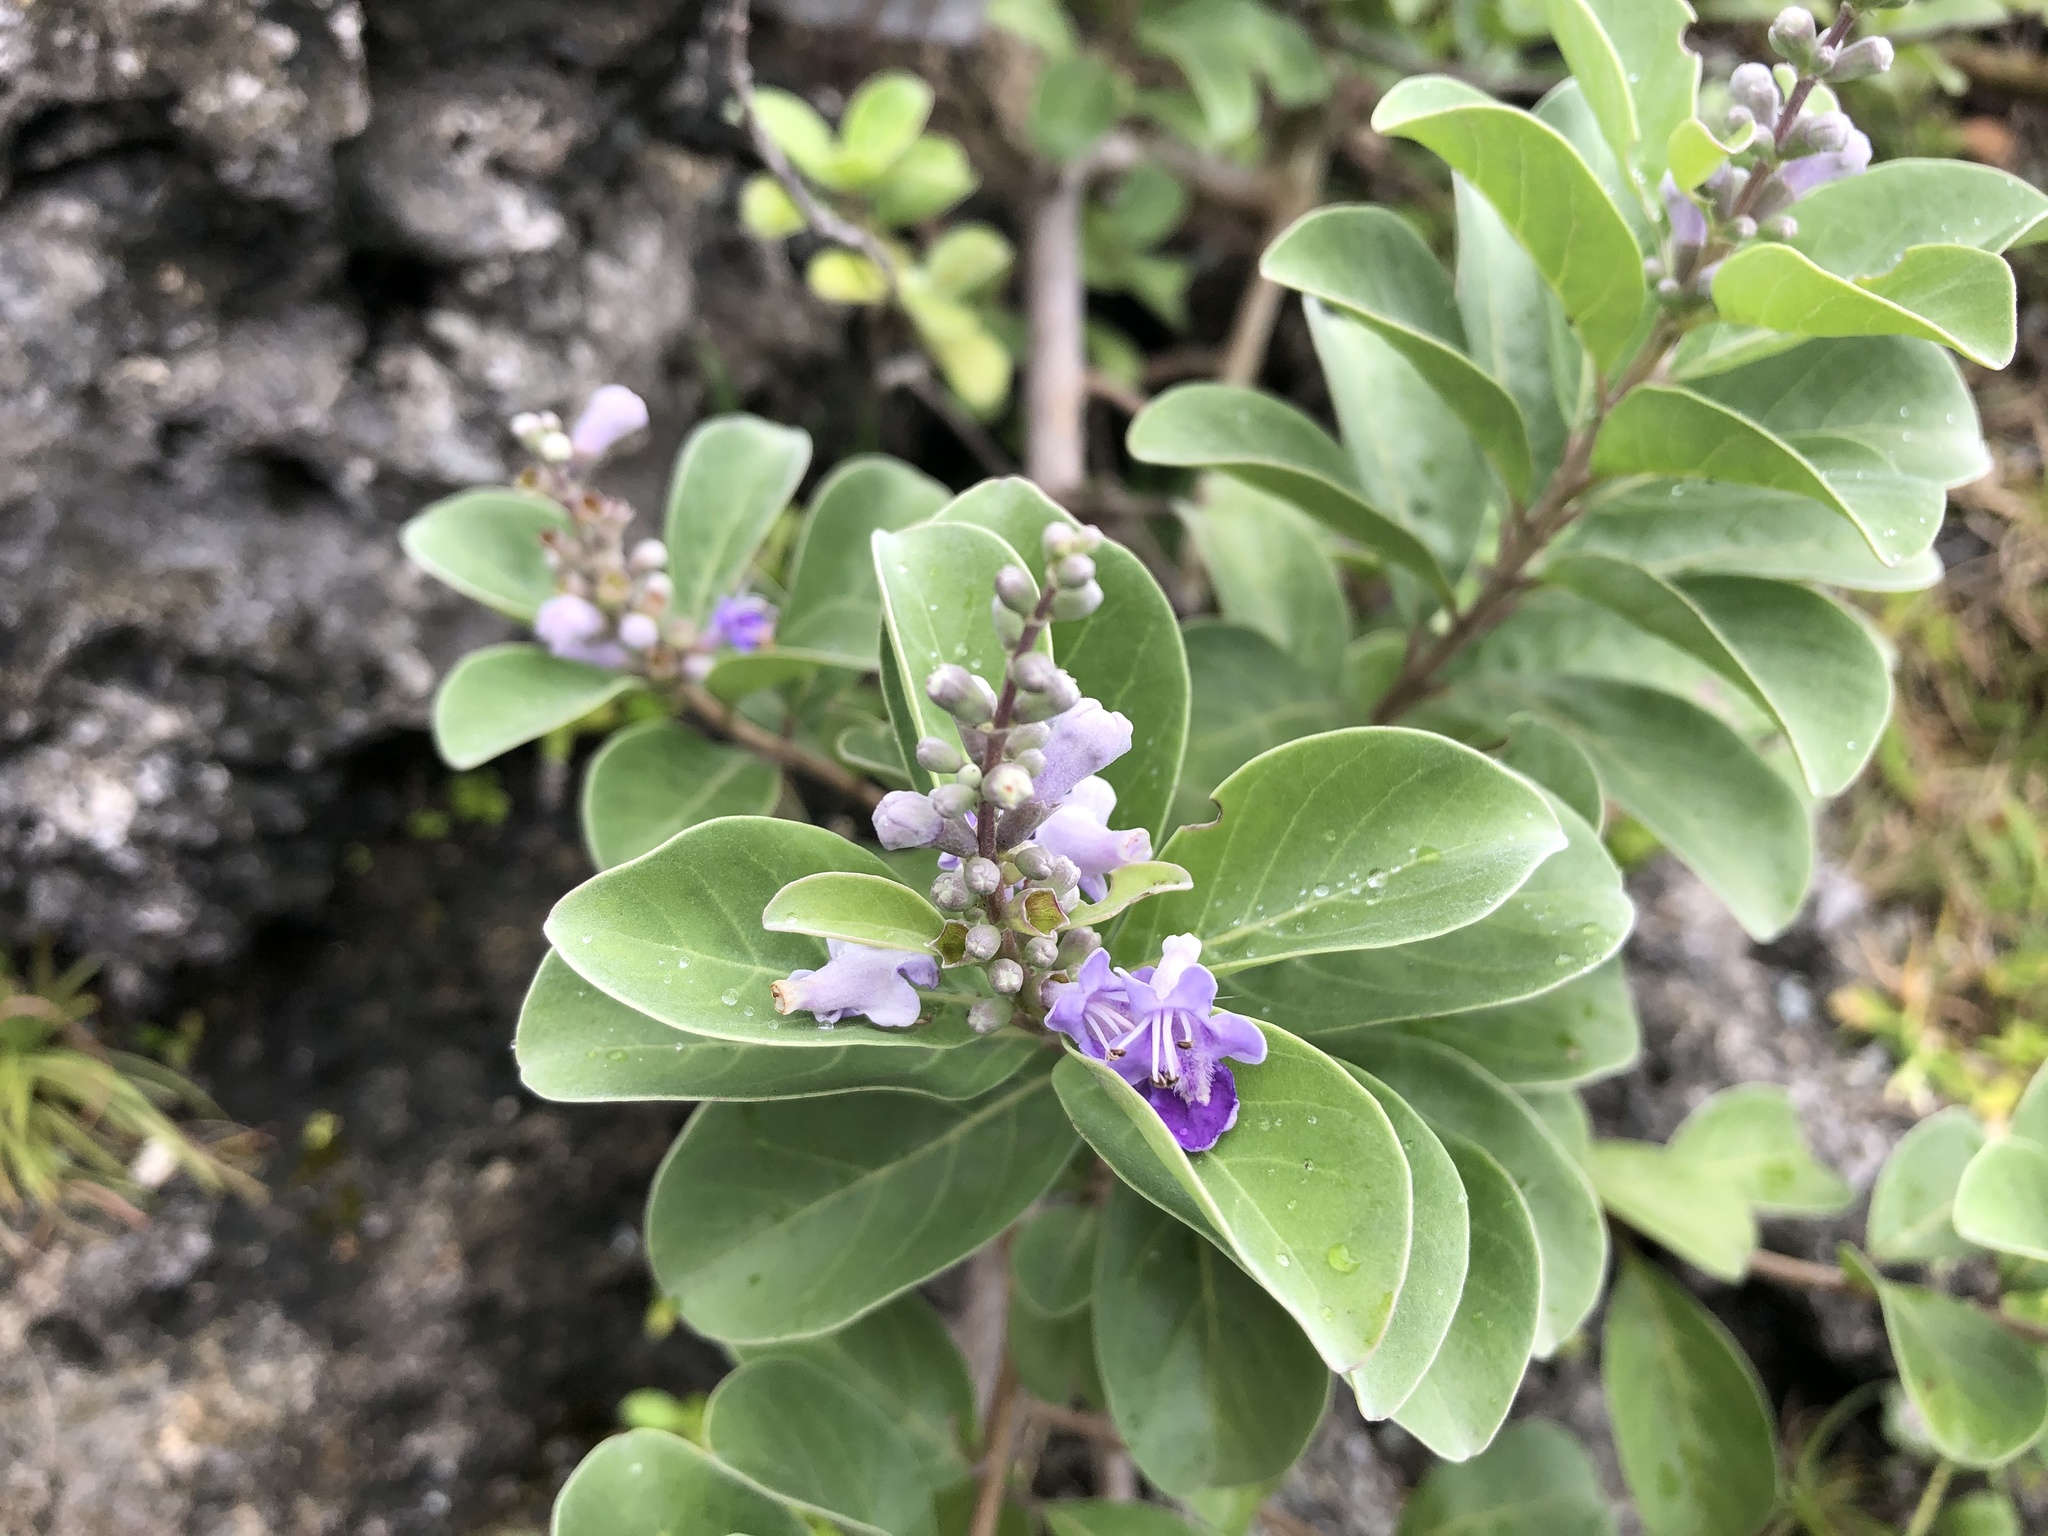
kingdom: Plantae
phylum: Tracheophyta
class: Magnoliopsida
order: Lamiales
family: Lamiaceae
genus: Vitex
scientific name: Vitex rotundifolia
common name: Beach vitex
